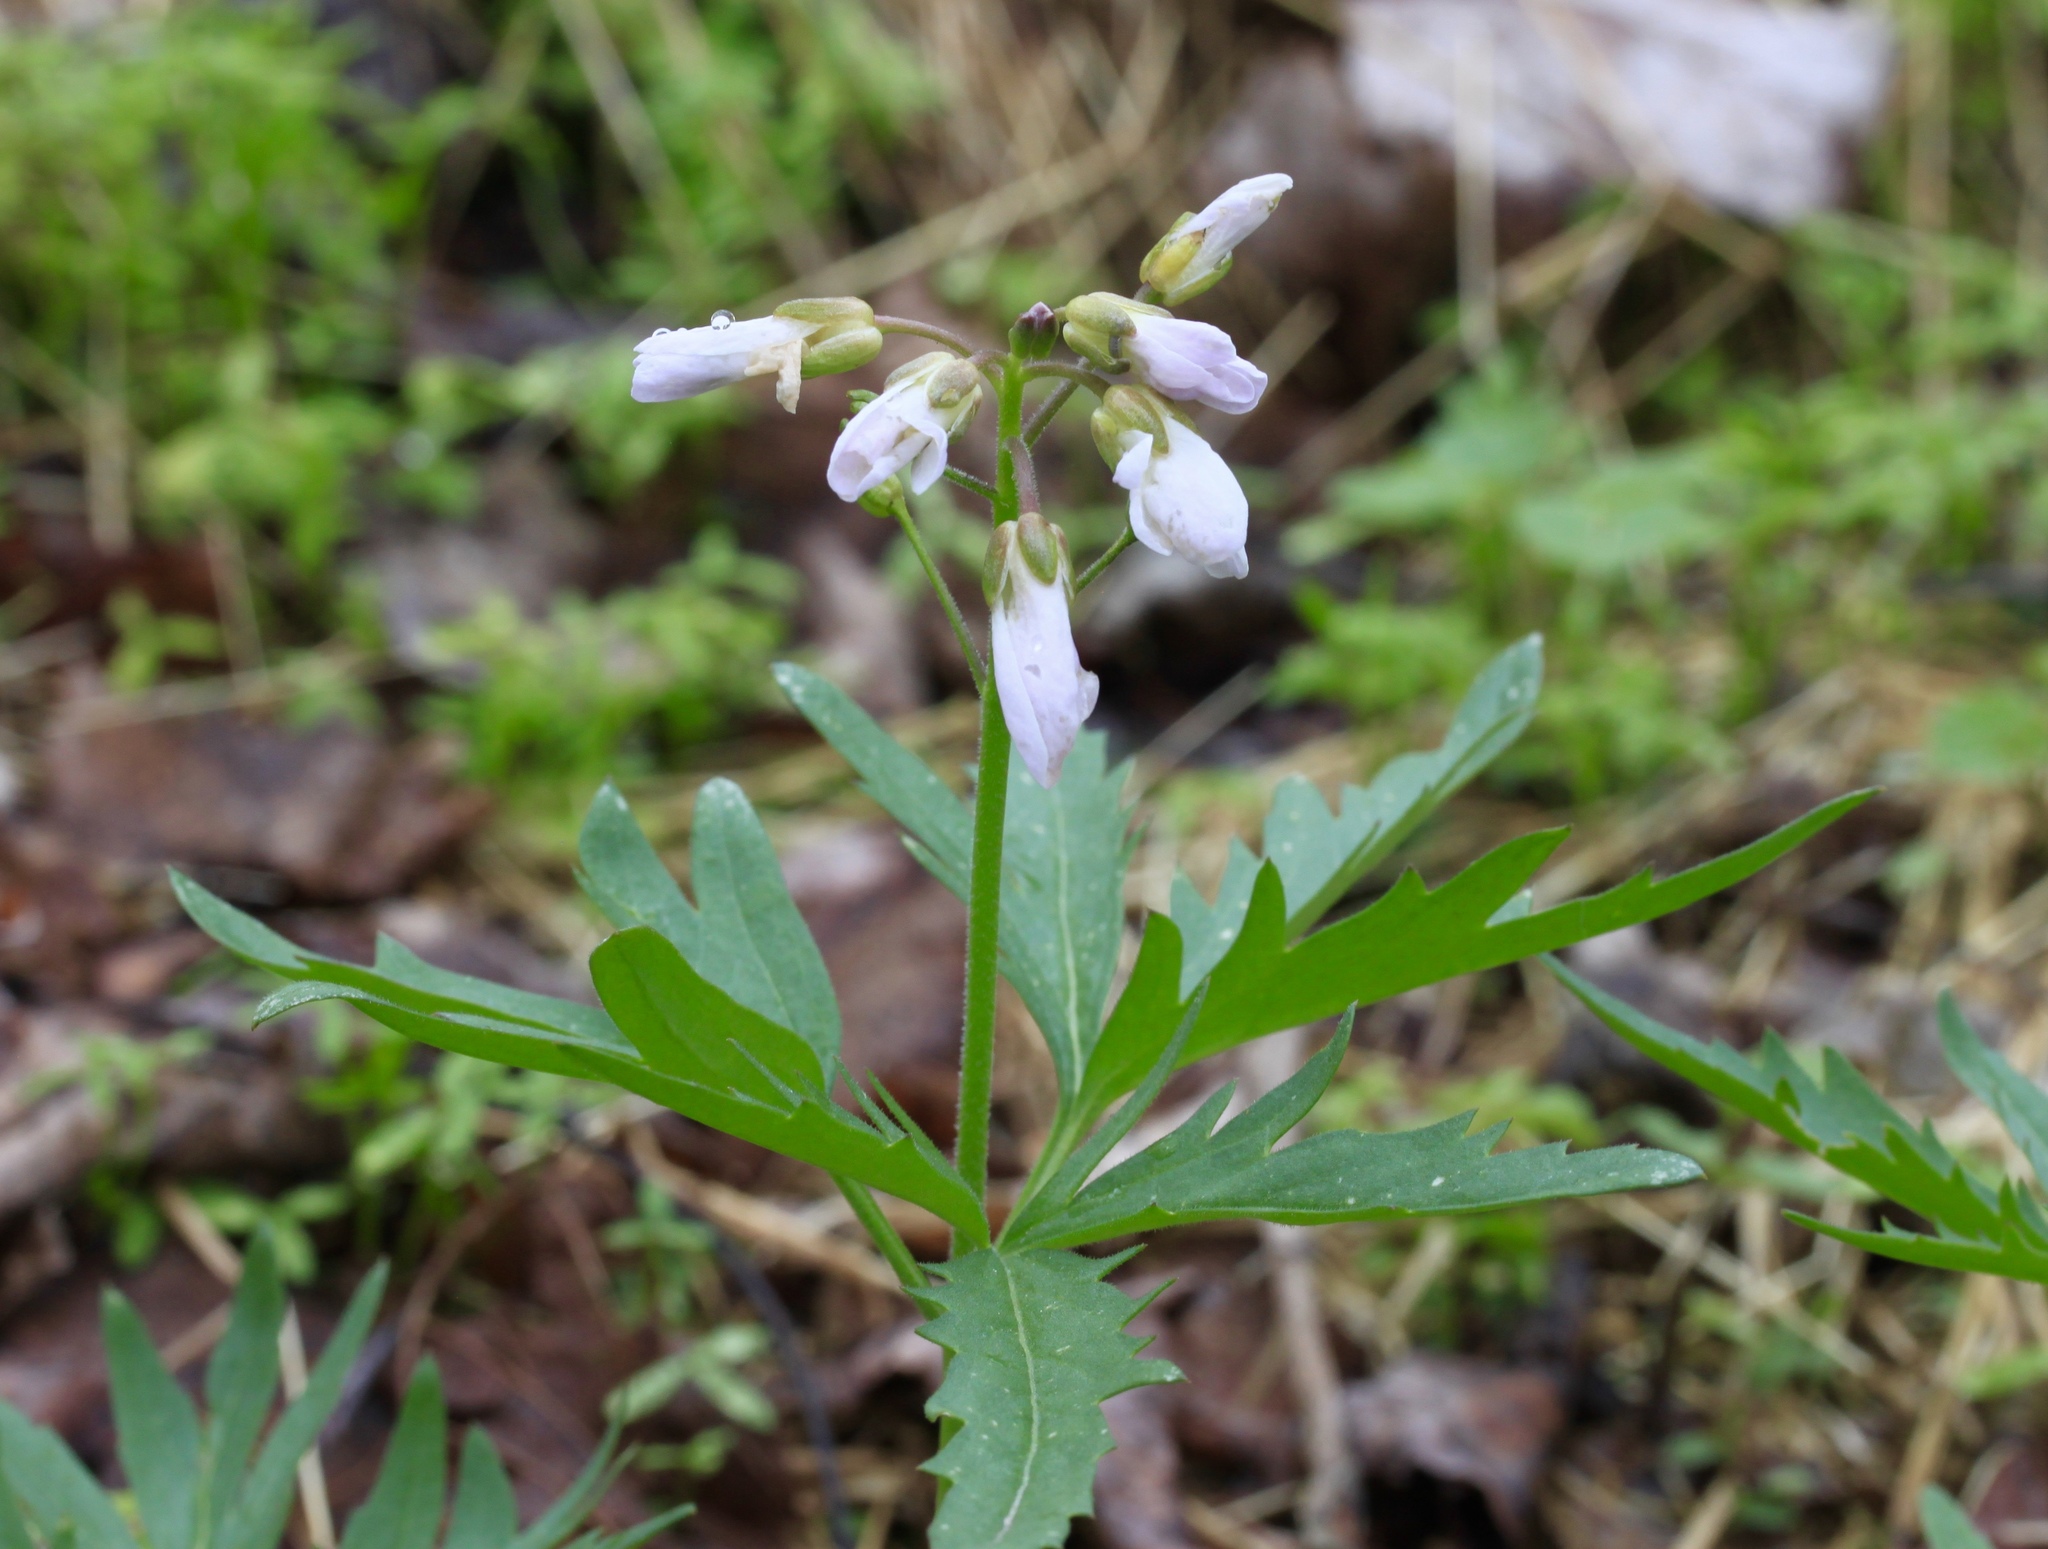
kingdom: Plantae
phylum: Tracheophyta
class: Magnoliopsida
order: Brassicales
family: Brassicaceae
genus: Cardamine
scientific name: Cardamine concatenata
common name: Cut-leaf toothcup
